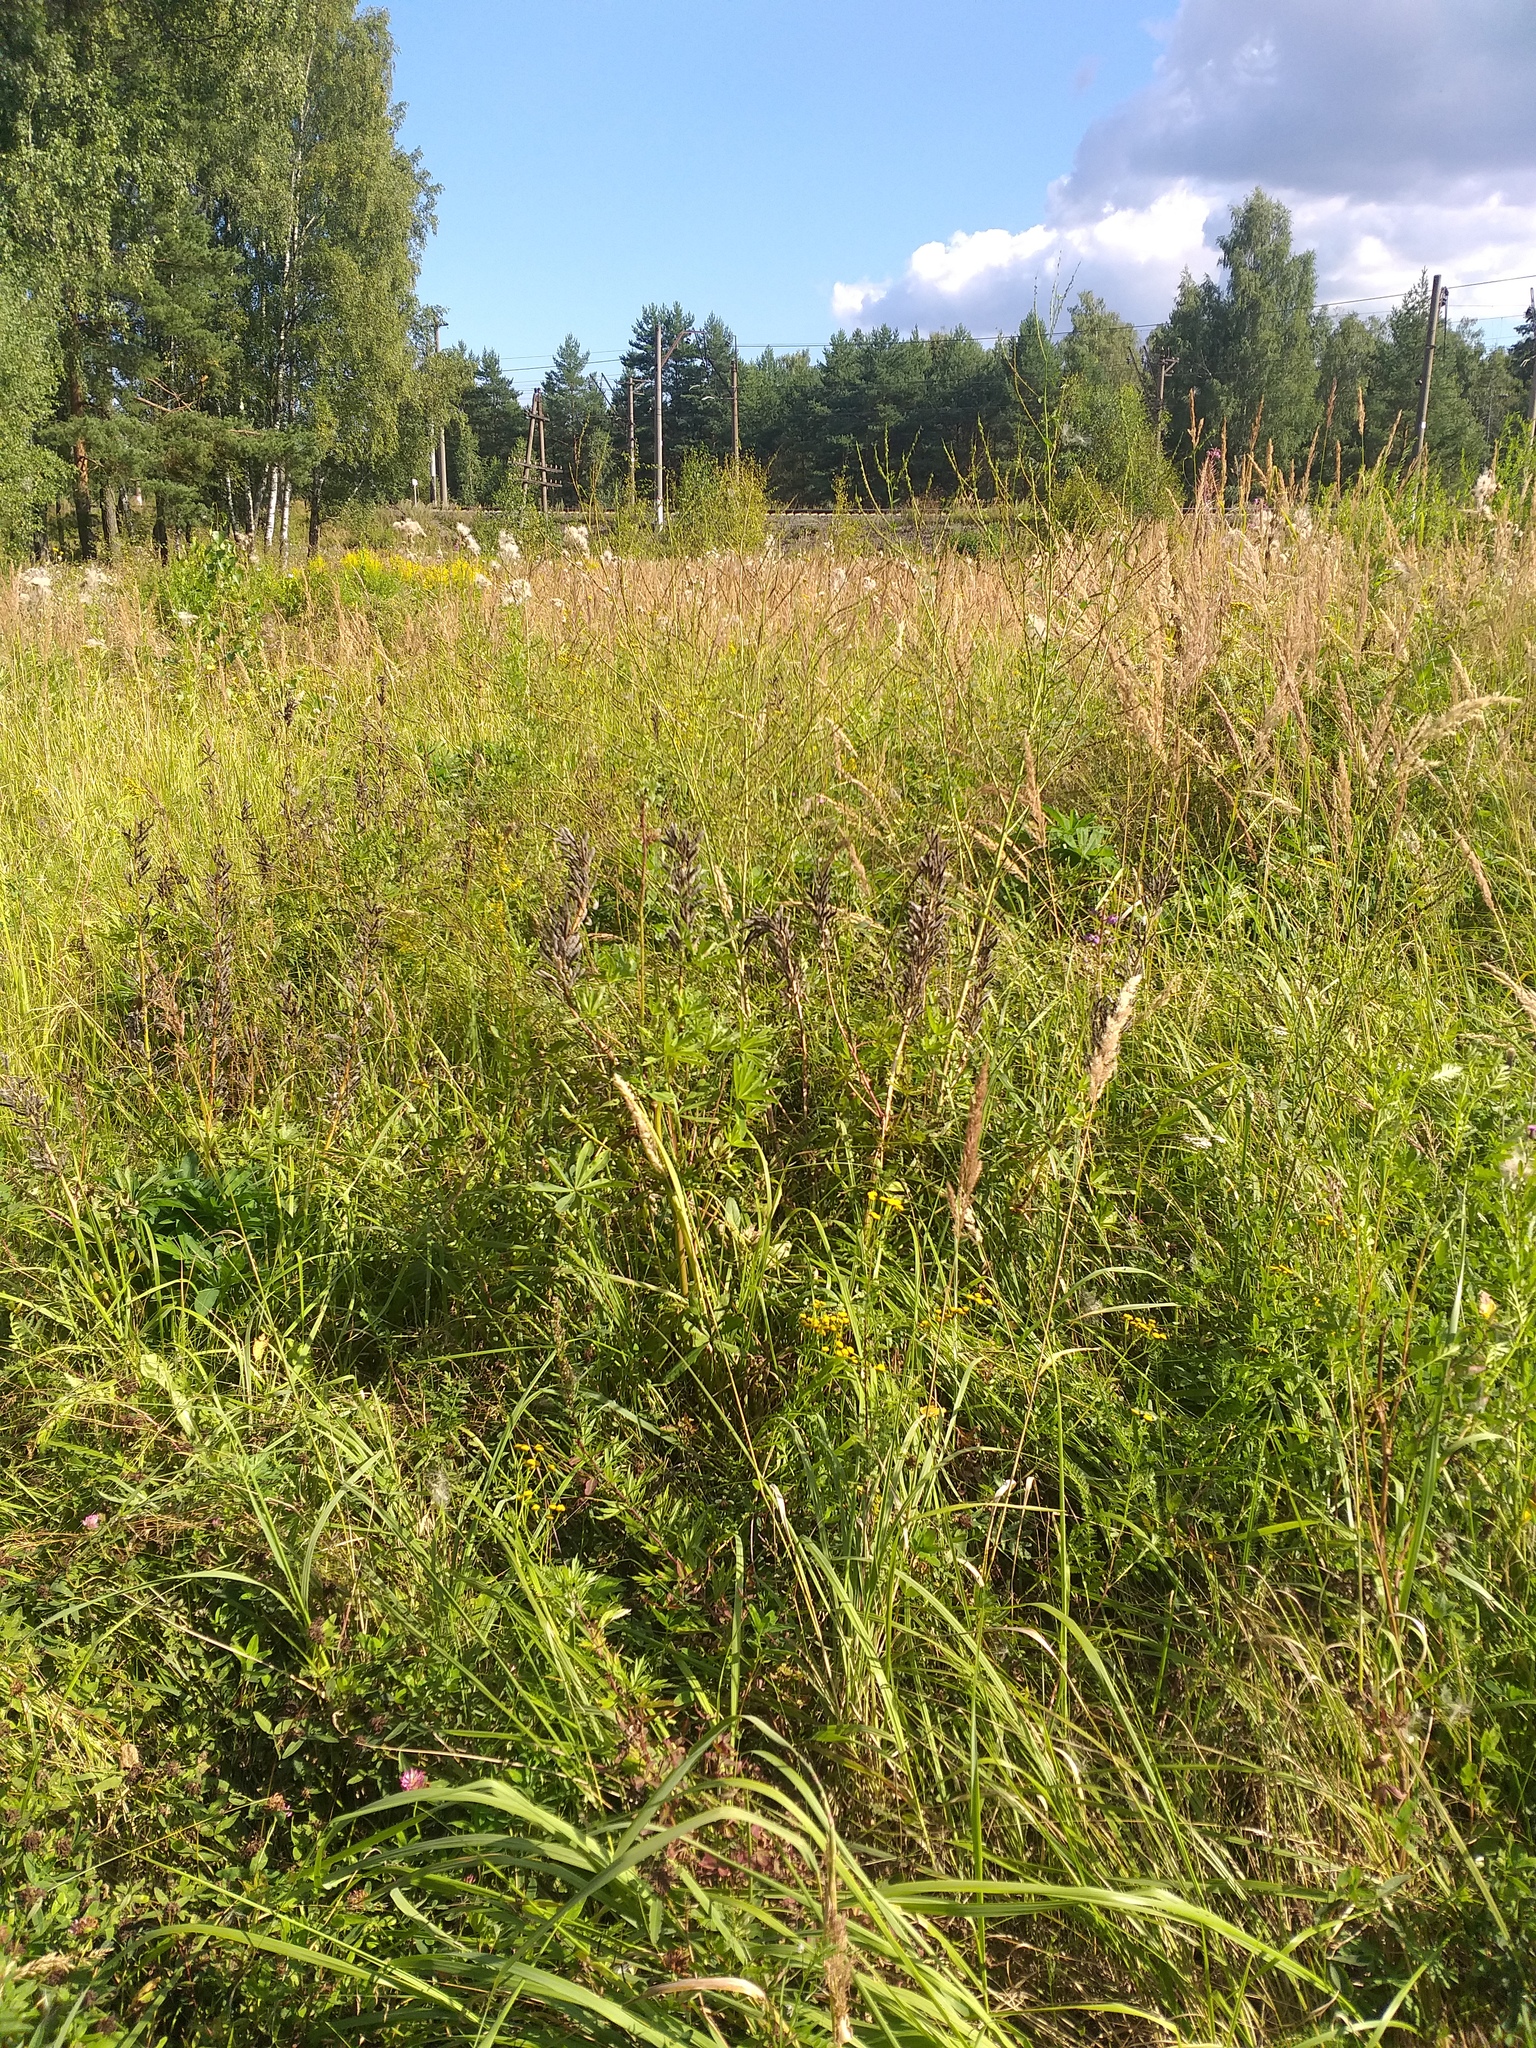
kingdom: Plantae
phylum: Tracheophyta
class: Magnoliopsida
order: Fabales
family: Fabaceae
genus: Lupinus
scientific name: Lupinus polyphyllus
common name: Garden lupin
